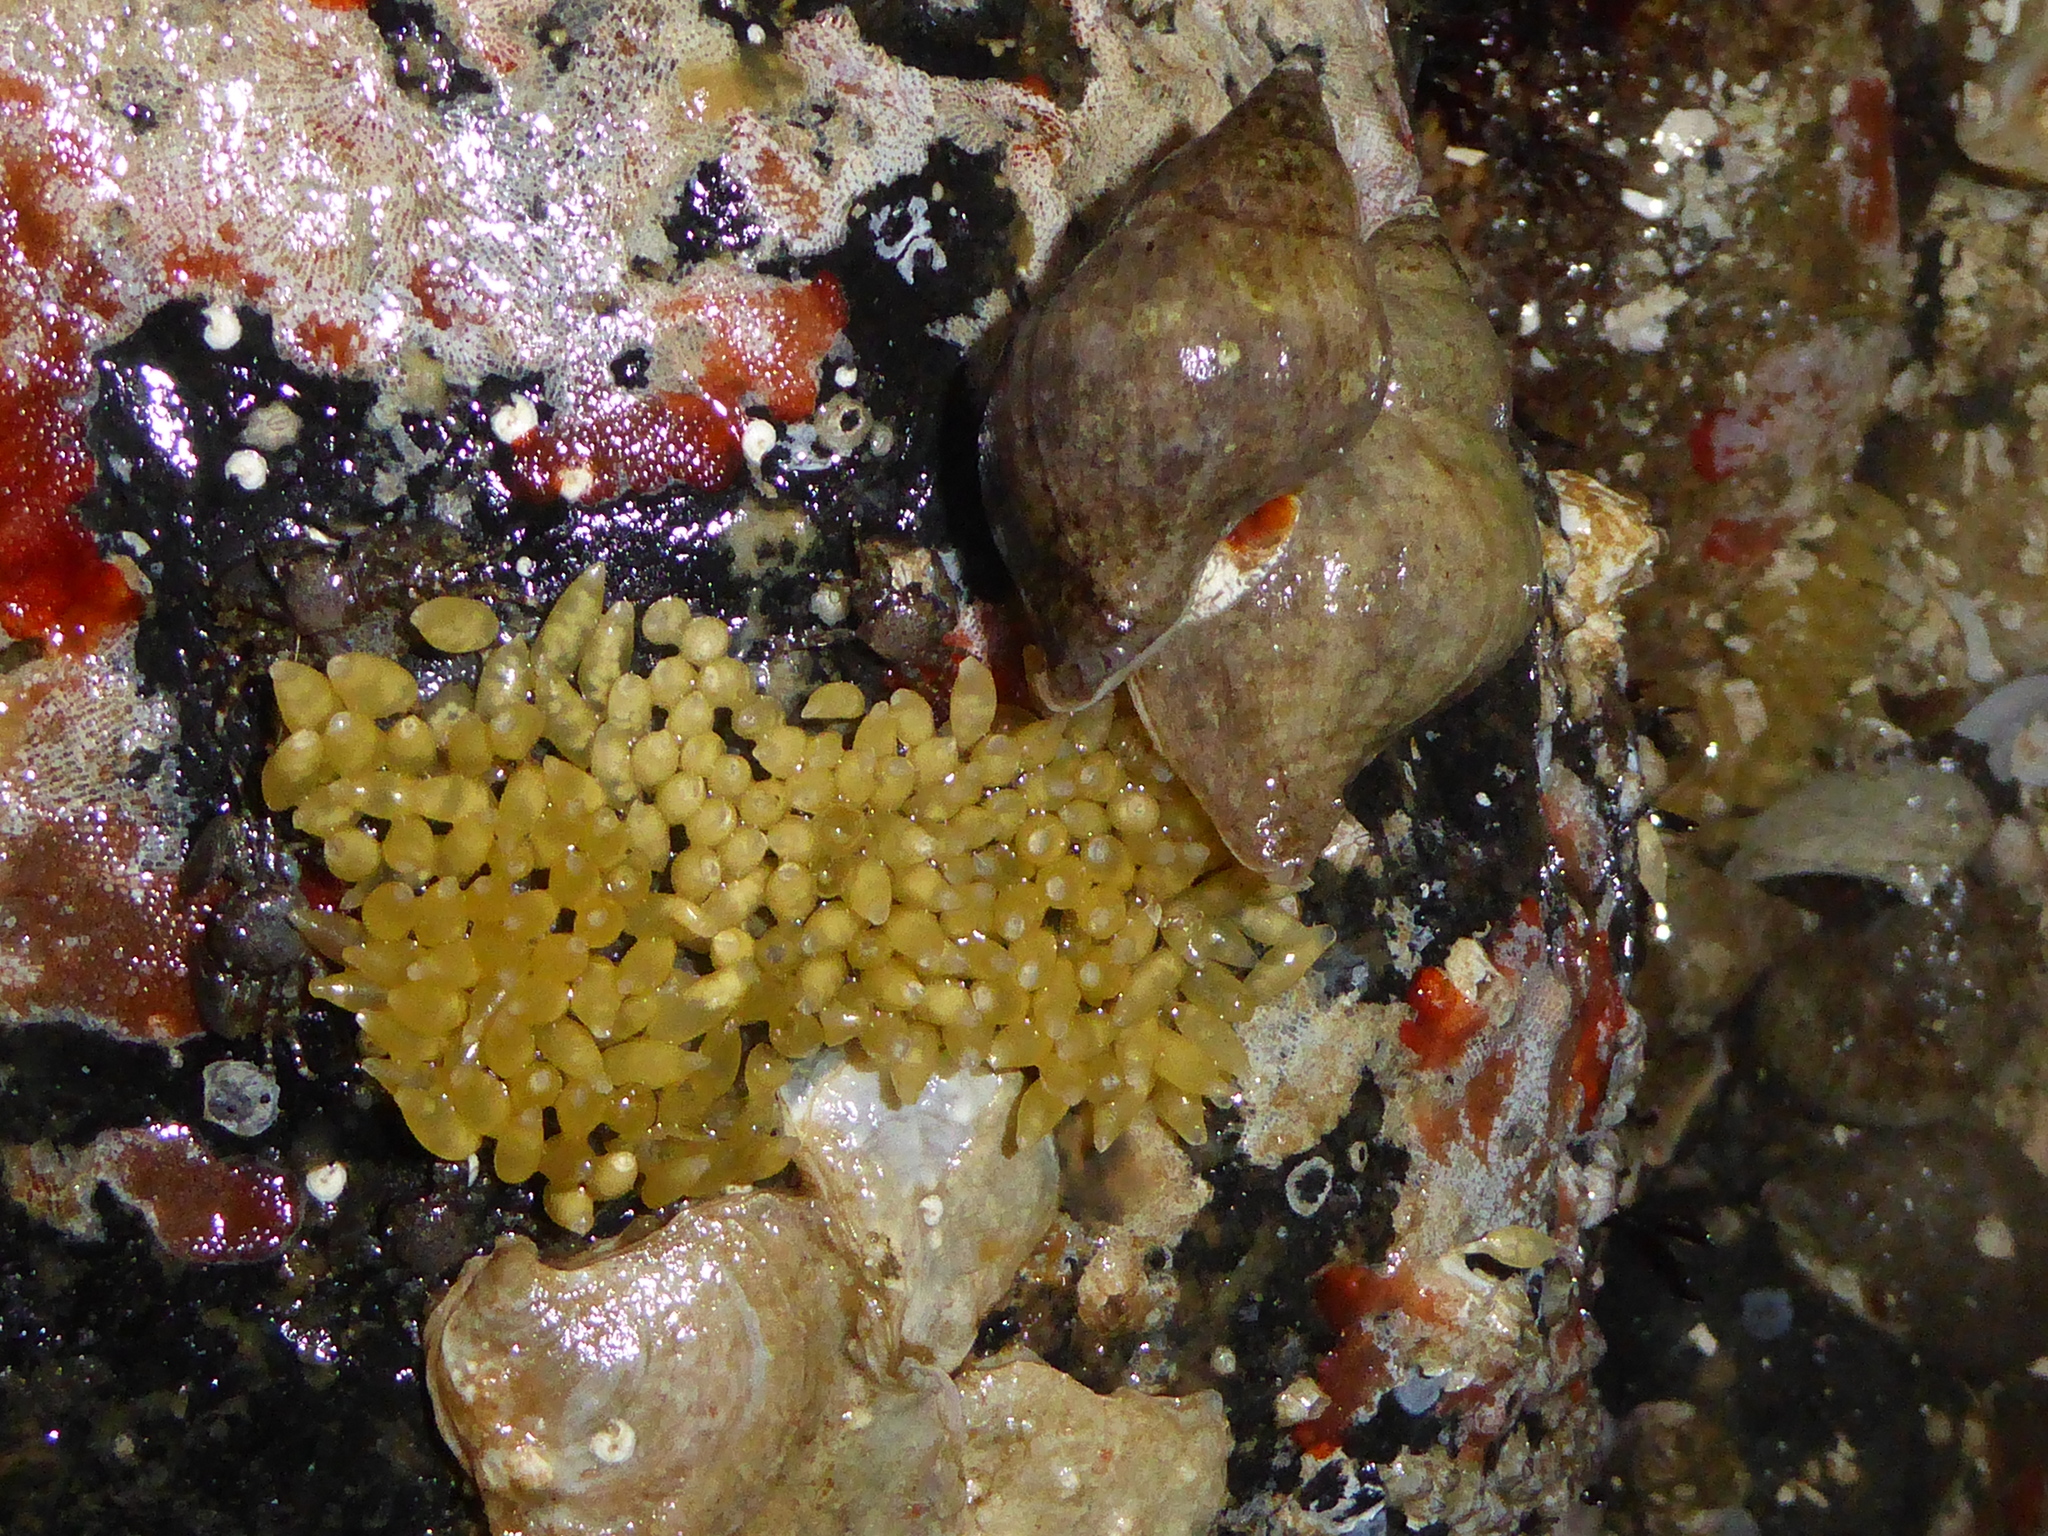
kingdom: Animalia
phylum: Mollusca
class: Gastropoda
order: Neogastropoda
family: Muricidae
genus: Nucella
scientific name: Nucella lamellosa
